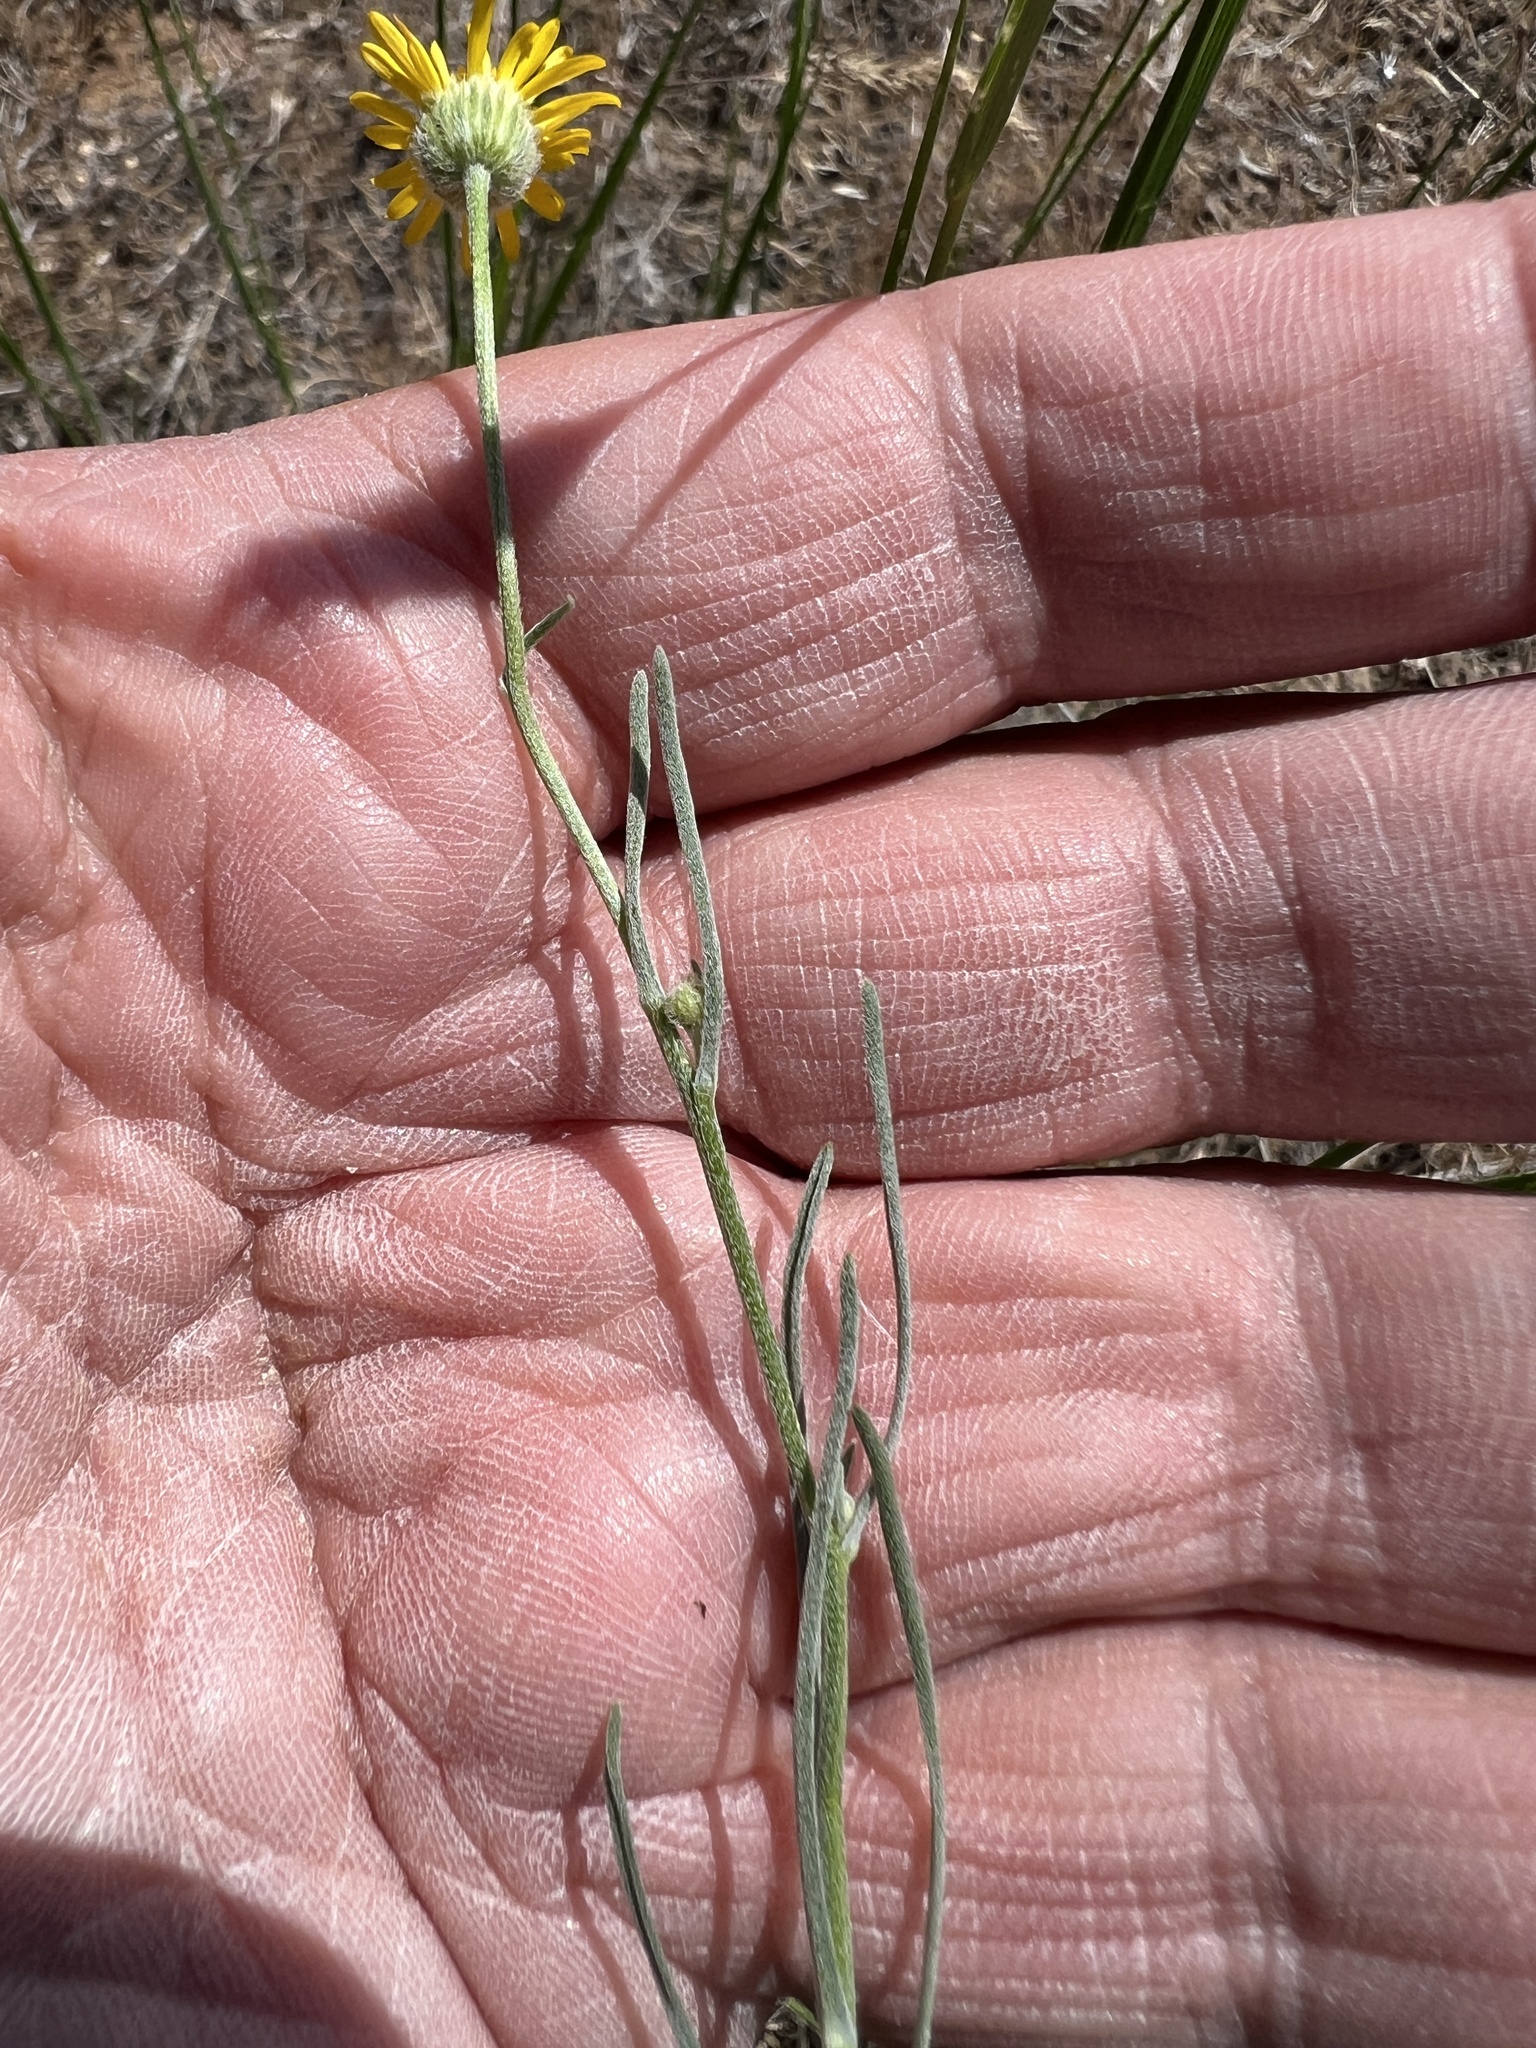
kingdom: Plantae
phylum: Tracheophyta
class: Magnoliopsida
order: Asterales
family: Asteraceae
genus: Erigeron
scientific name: Erigeron linearis
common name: Desert yellow fleabane
